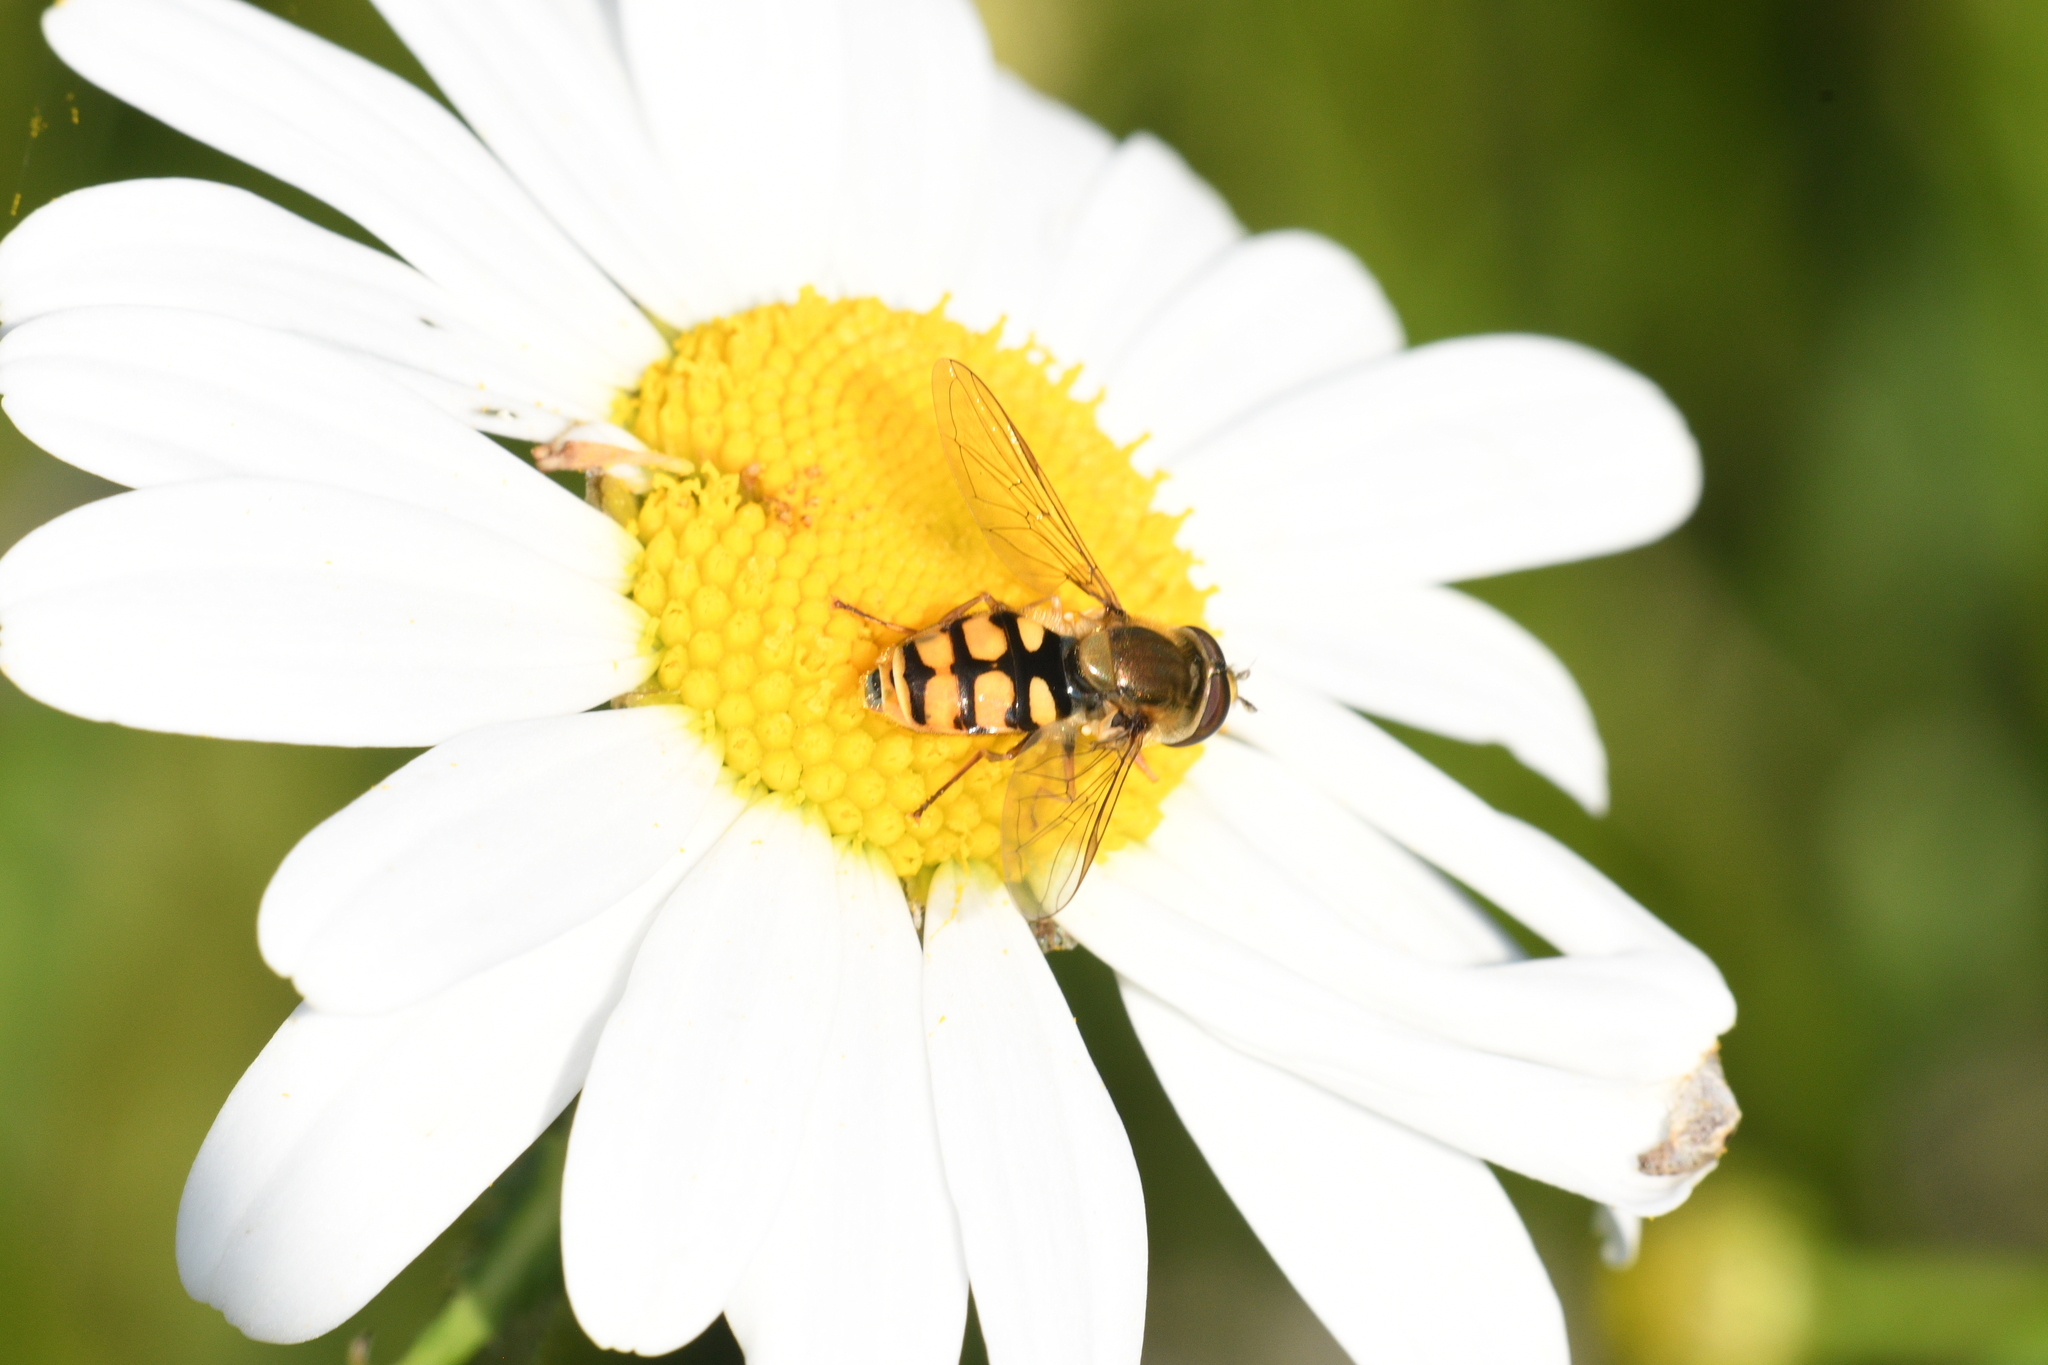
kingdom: Animalia
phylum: Arthropoda
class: Insecta
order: Diptera
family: Syrphidae
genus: Eupeodes
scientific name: Eupeodes corollae
